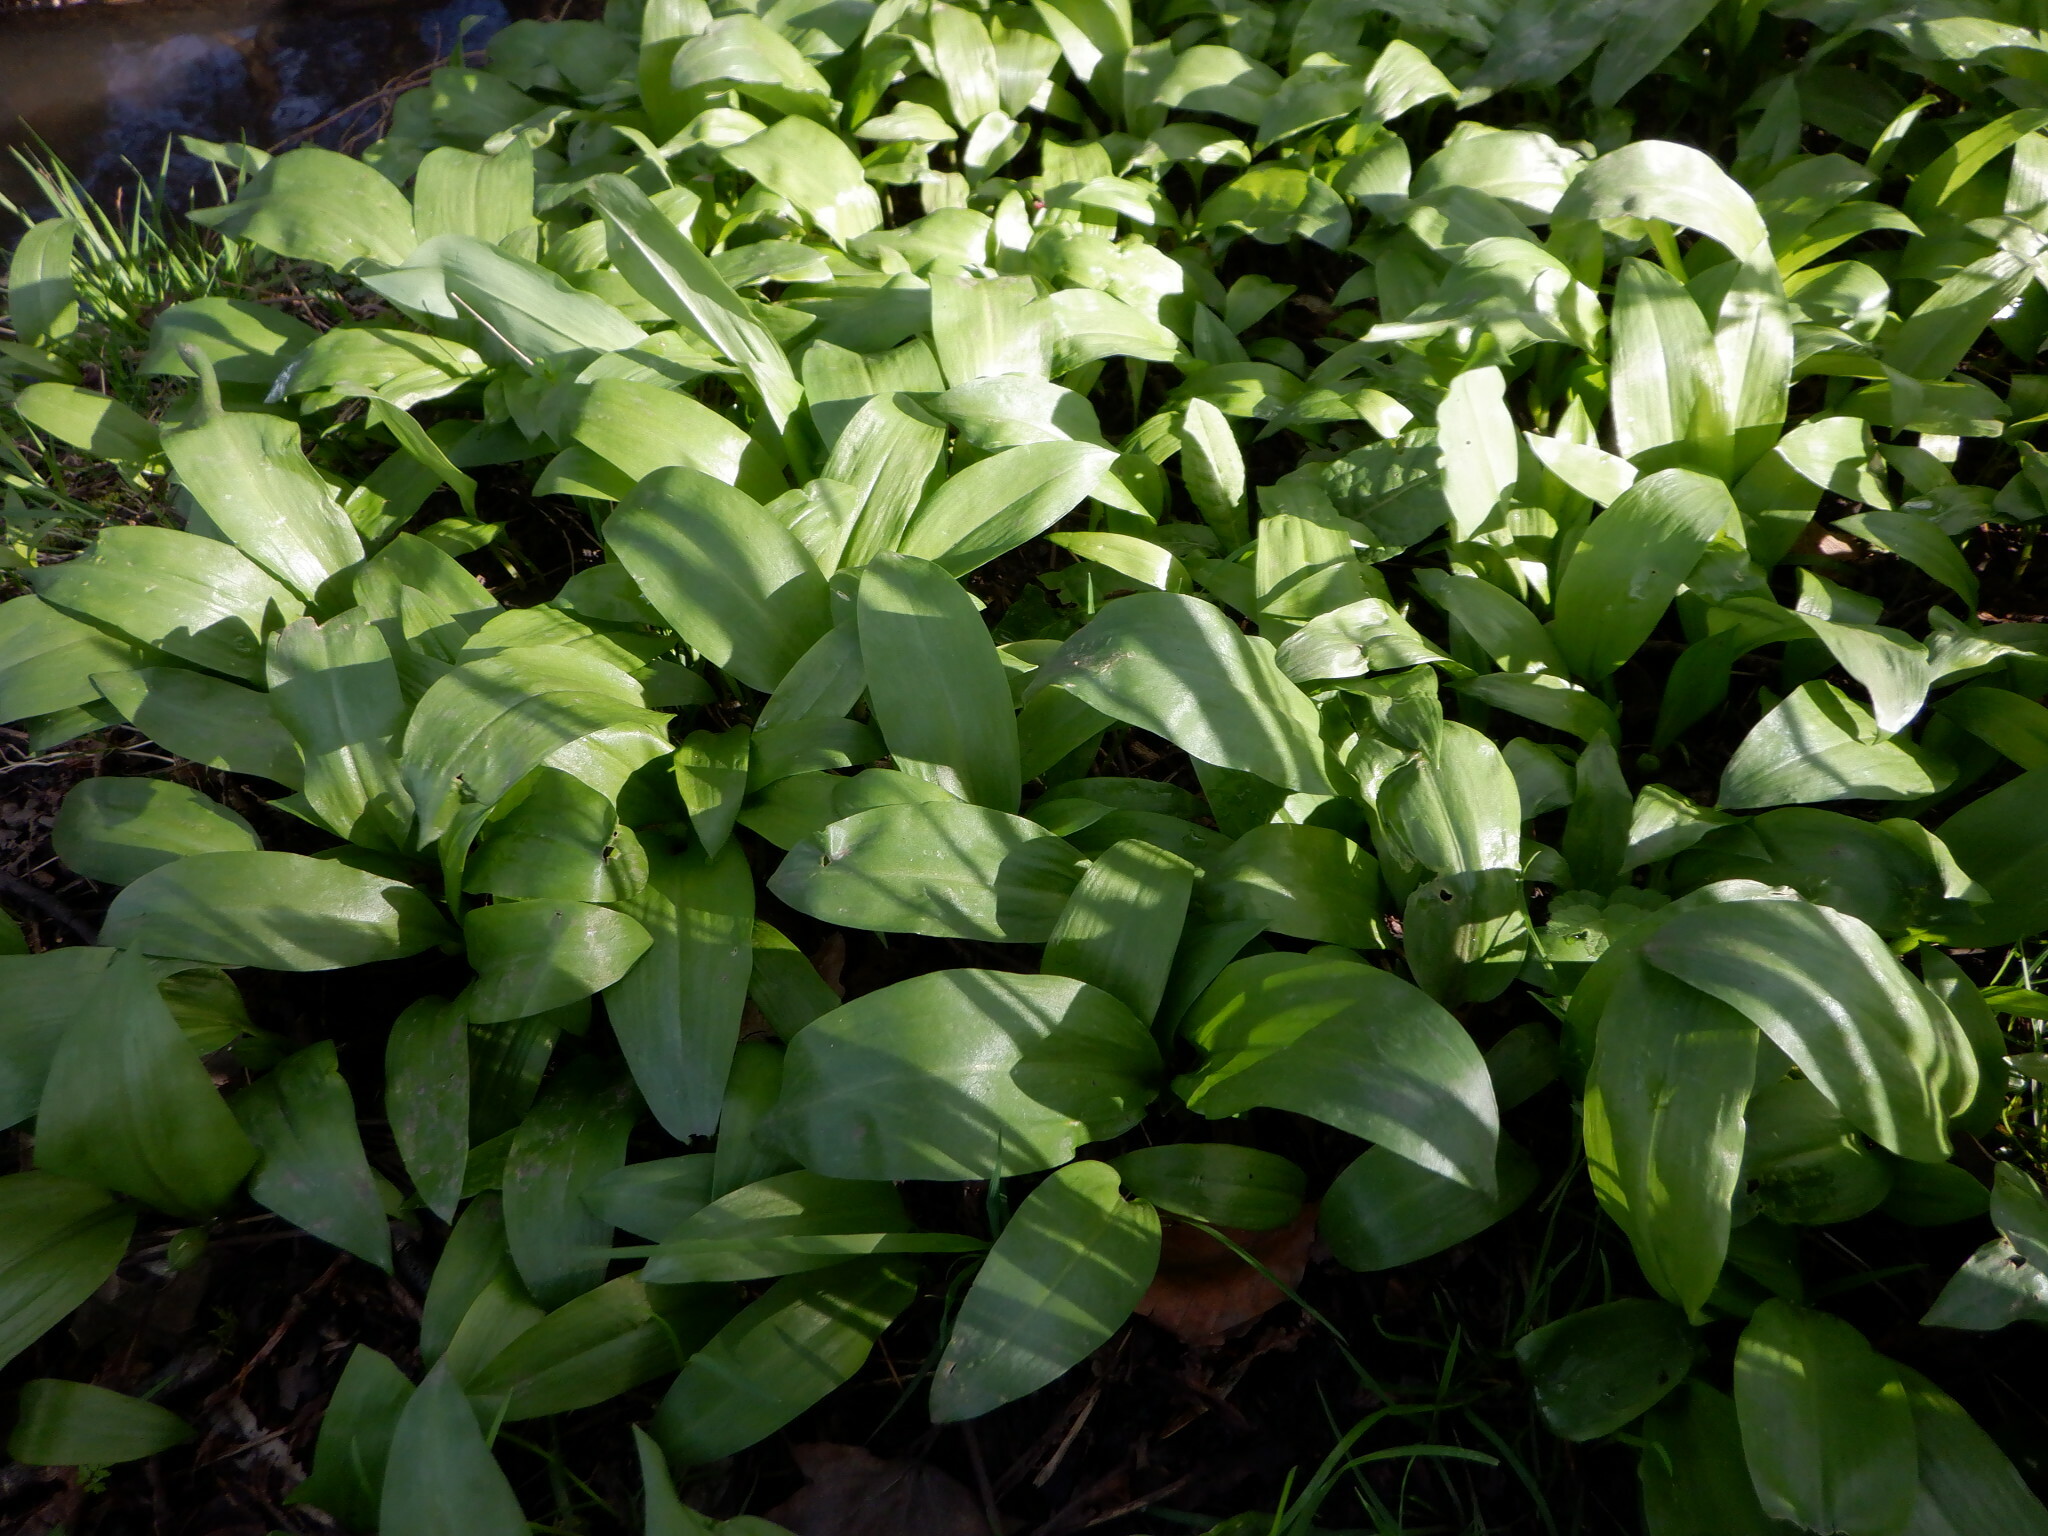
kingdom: Plantae
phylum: Tracheophyta
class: Liliopsida
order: Asparagales
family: Amaryllidaceae
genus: Allium
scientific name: Allium ursinum
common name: Ramsons
